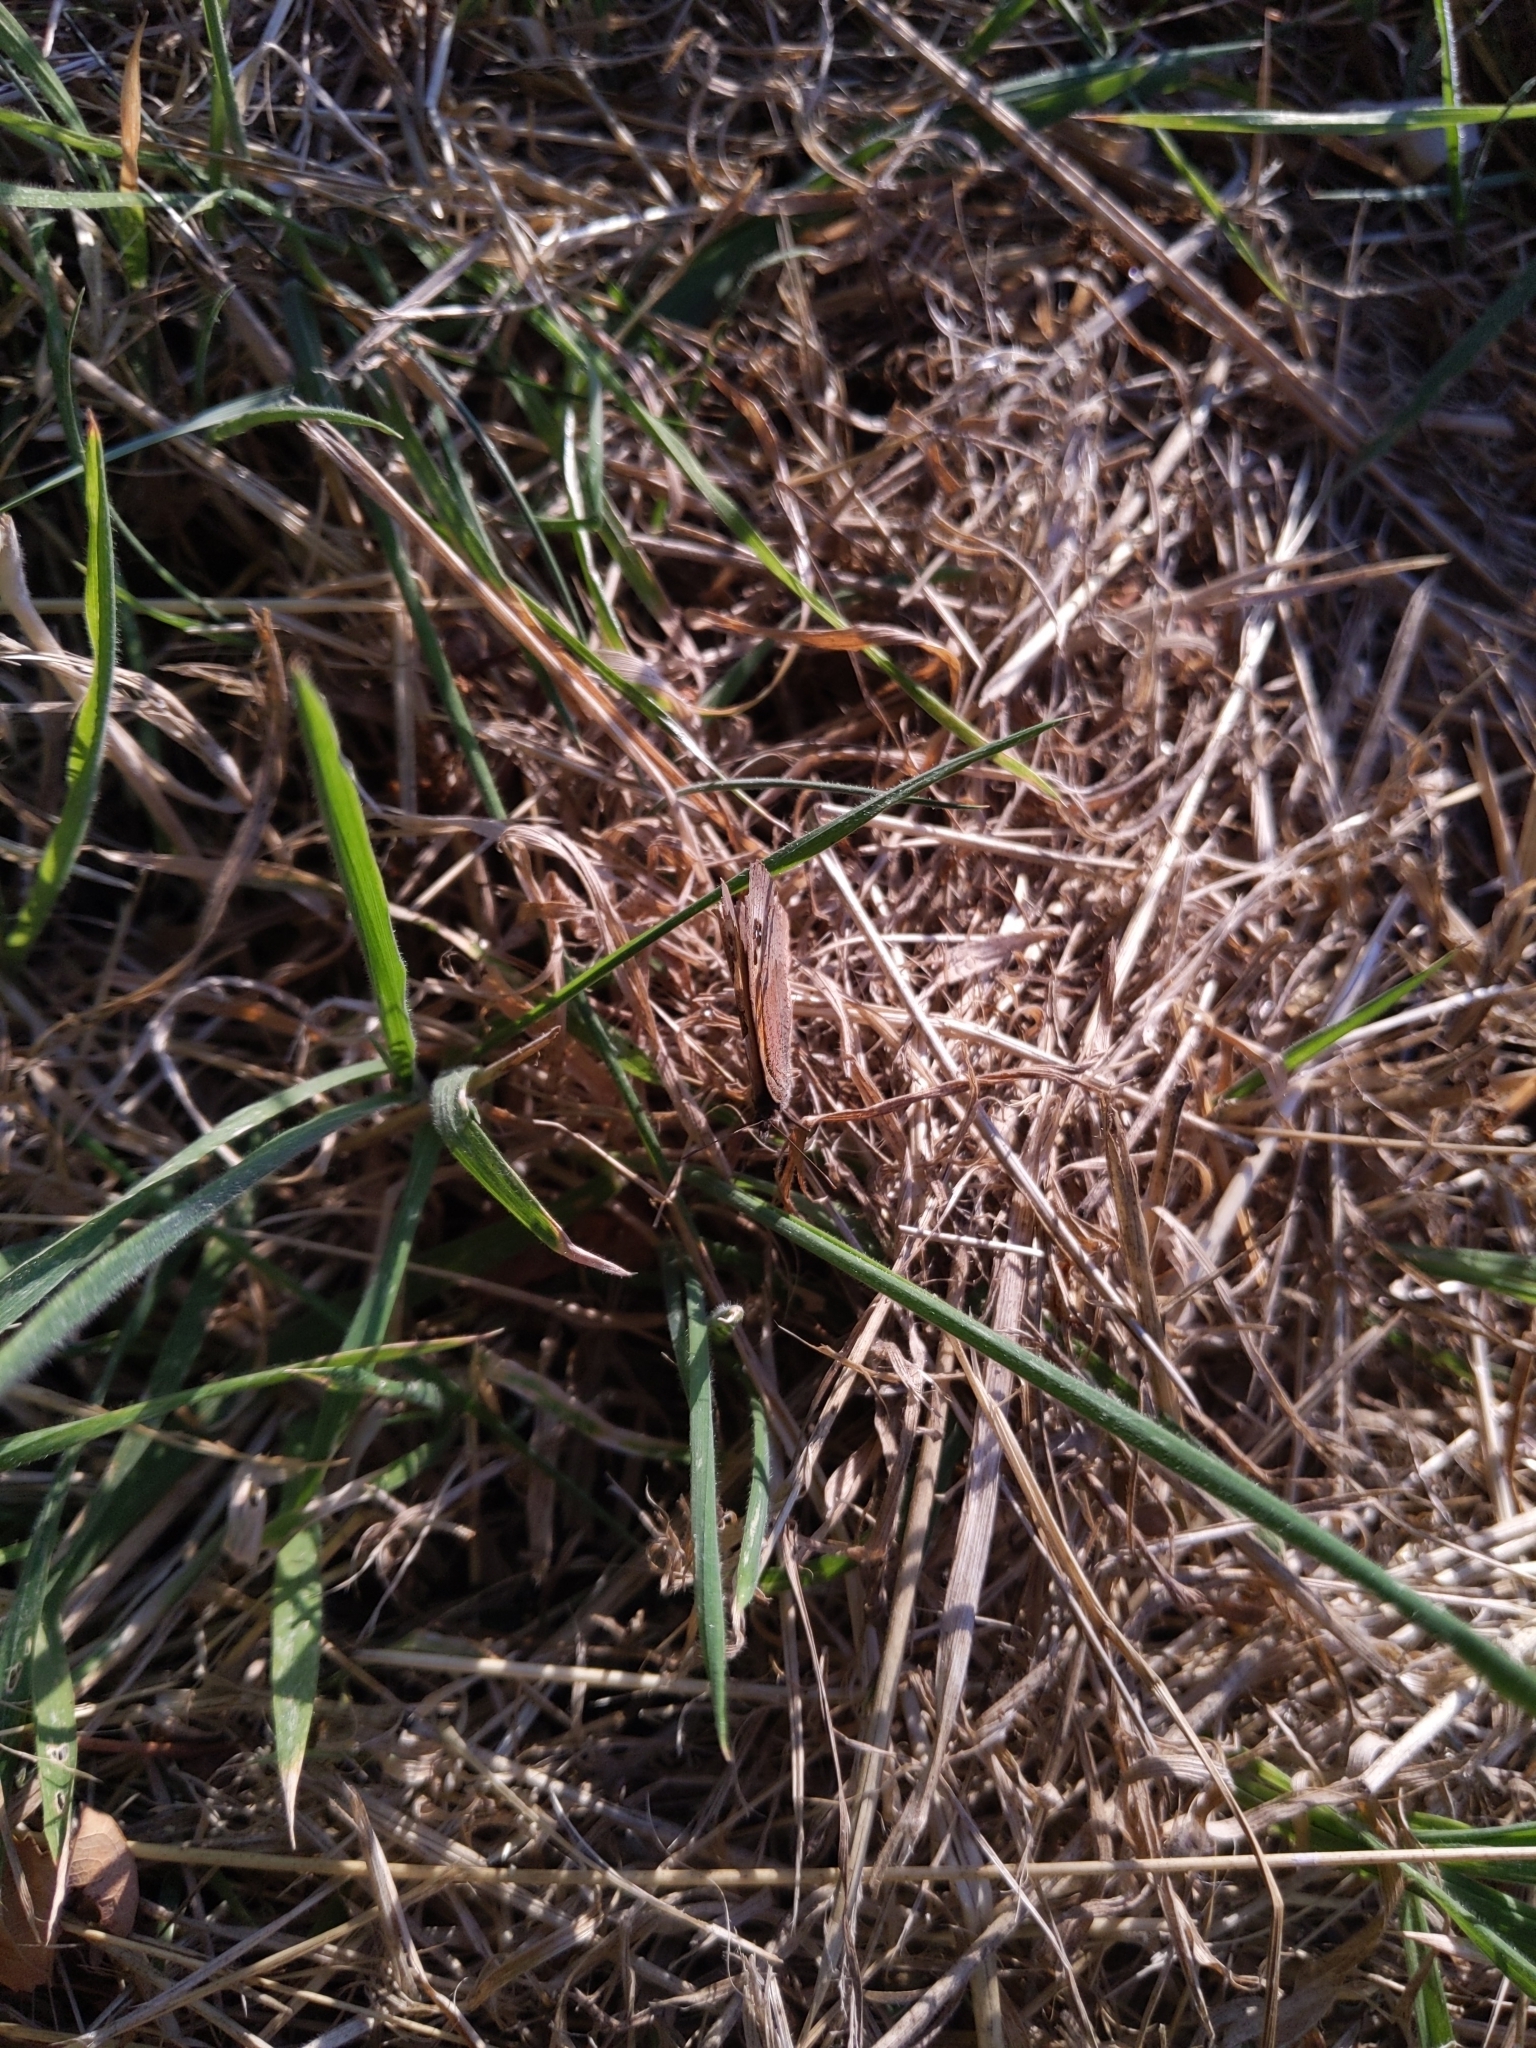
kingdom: Animalia
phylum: Arthropoda
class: Insecta
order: Lepidoptera
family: Nymphalidae
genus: Maniola
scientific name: Maniola jurtina
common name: Meadow brown
